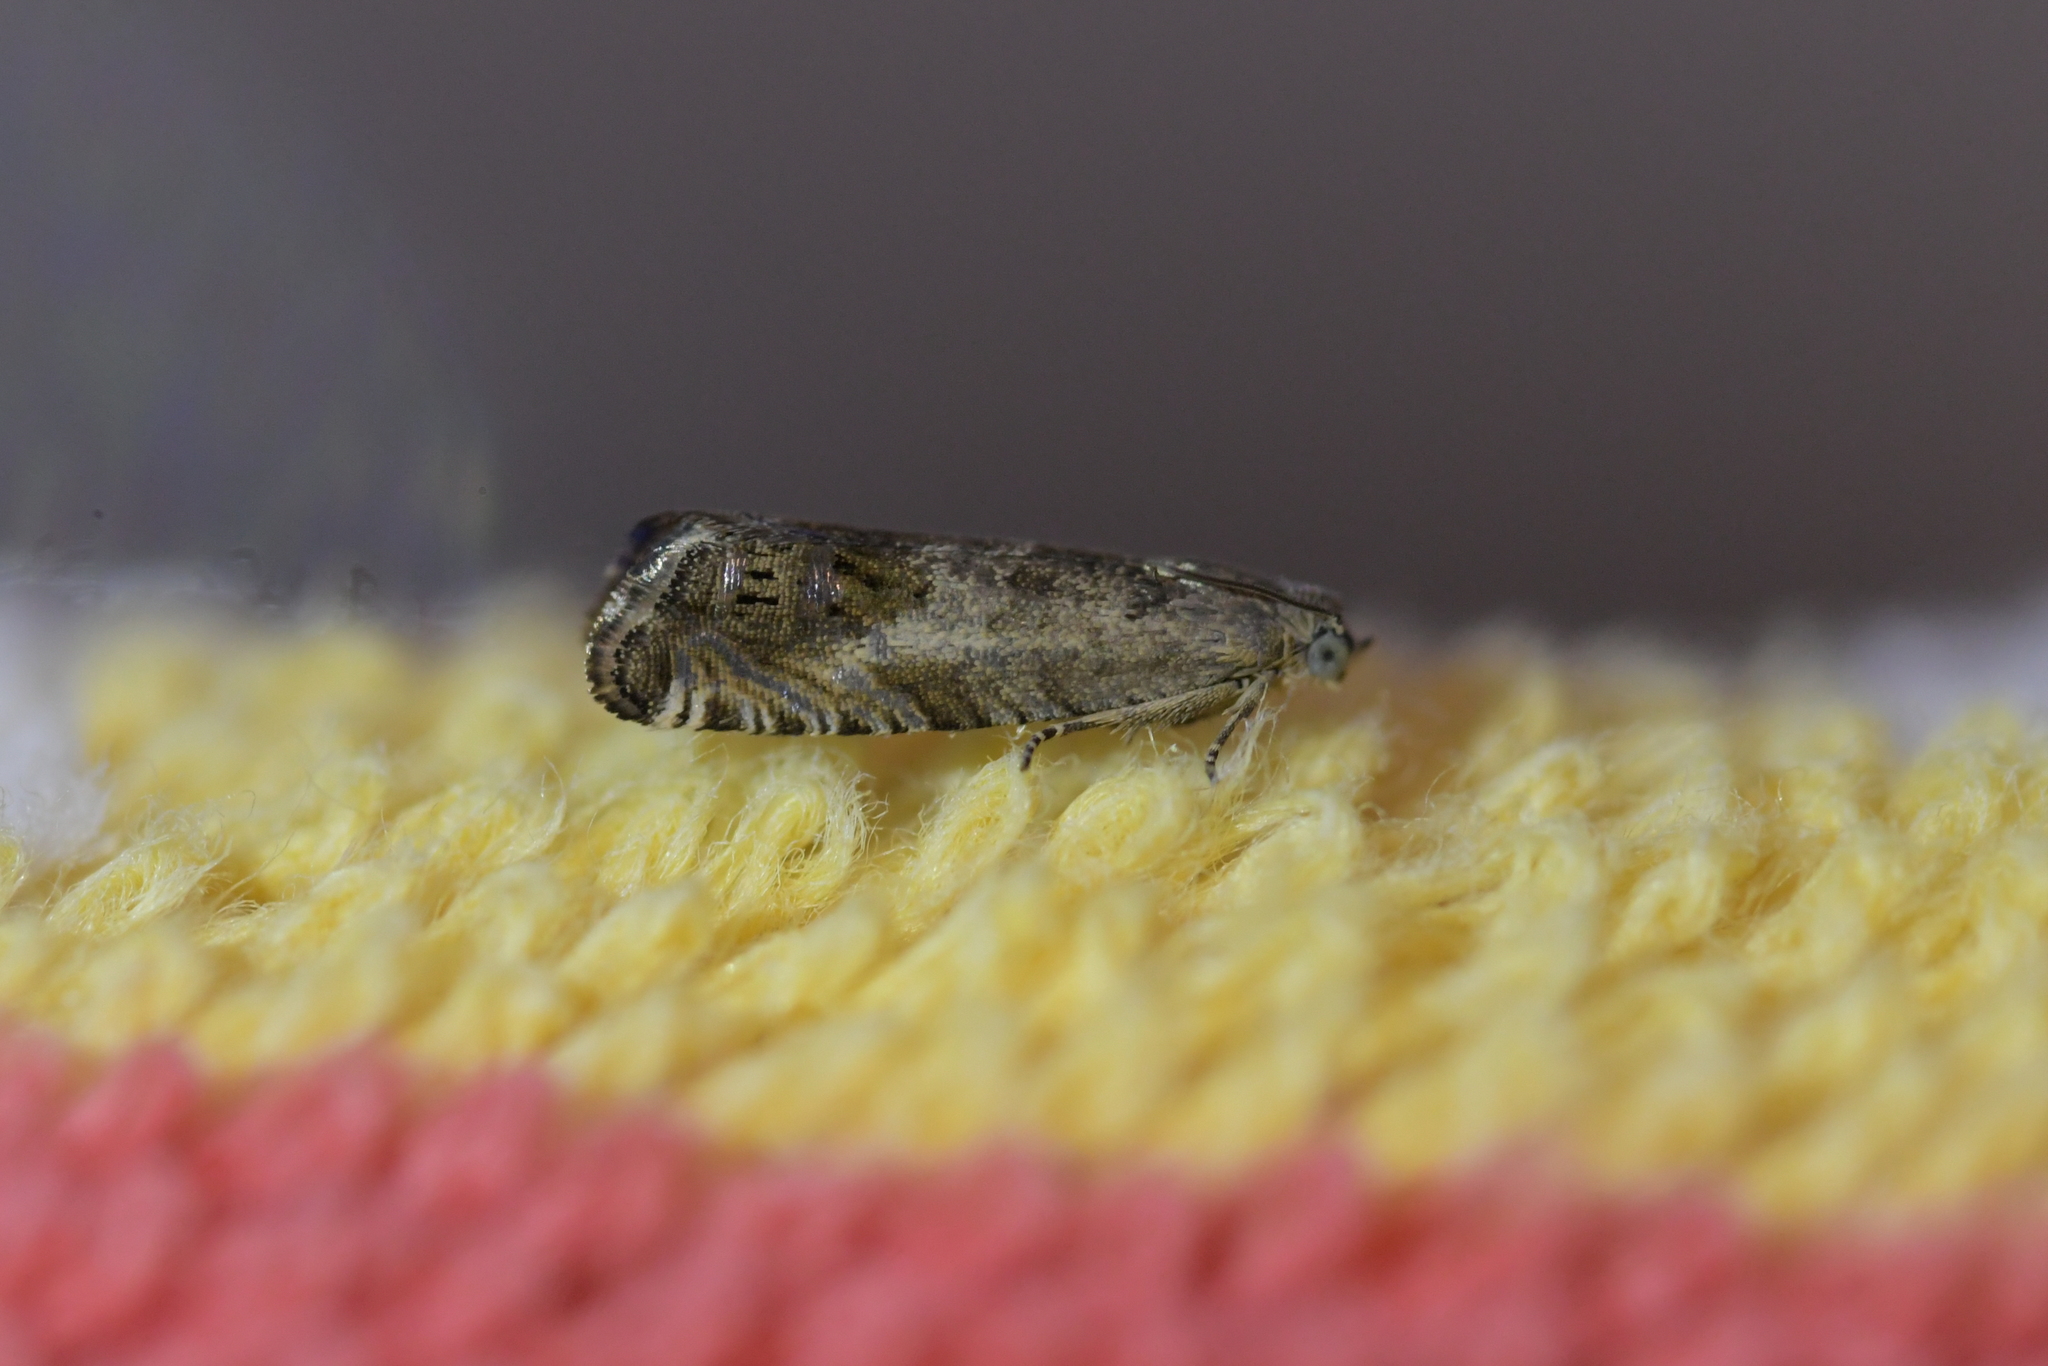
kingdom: Animalia
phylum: Arthropoda
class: Insecta
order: Lepidoptera
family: Tortricidae
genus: Cydia
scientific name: Cydia succedana
